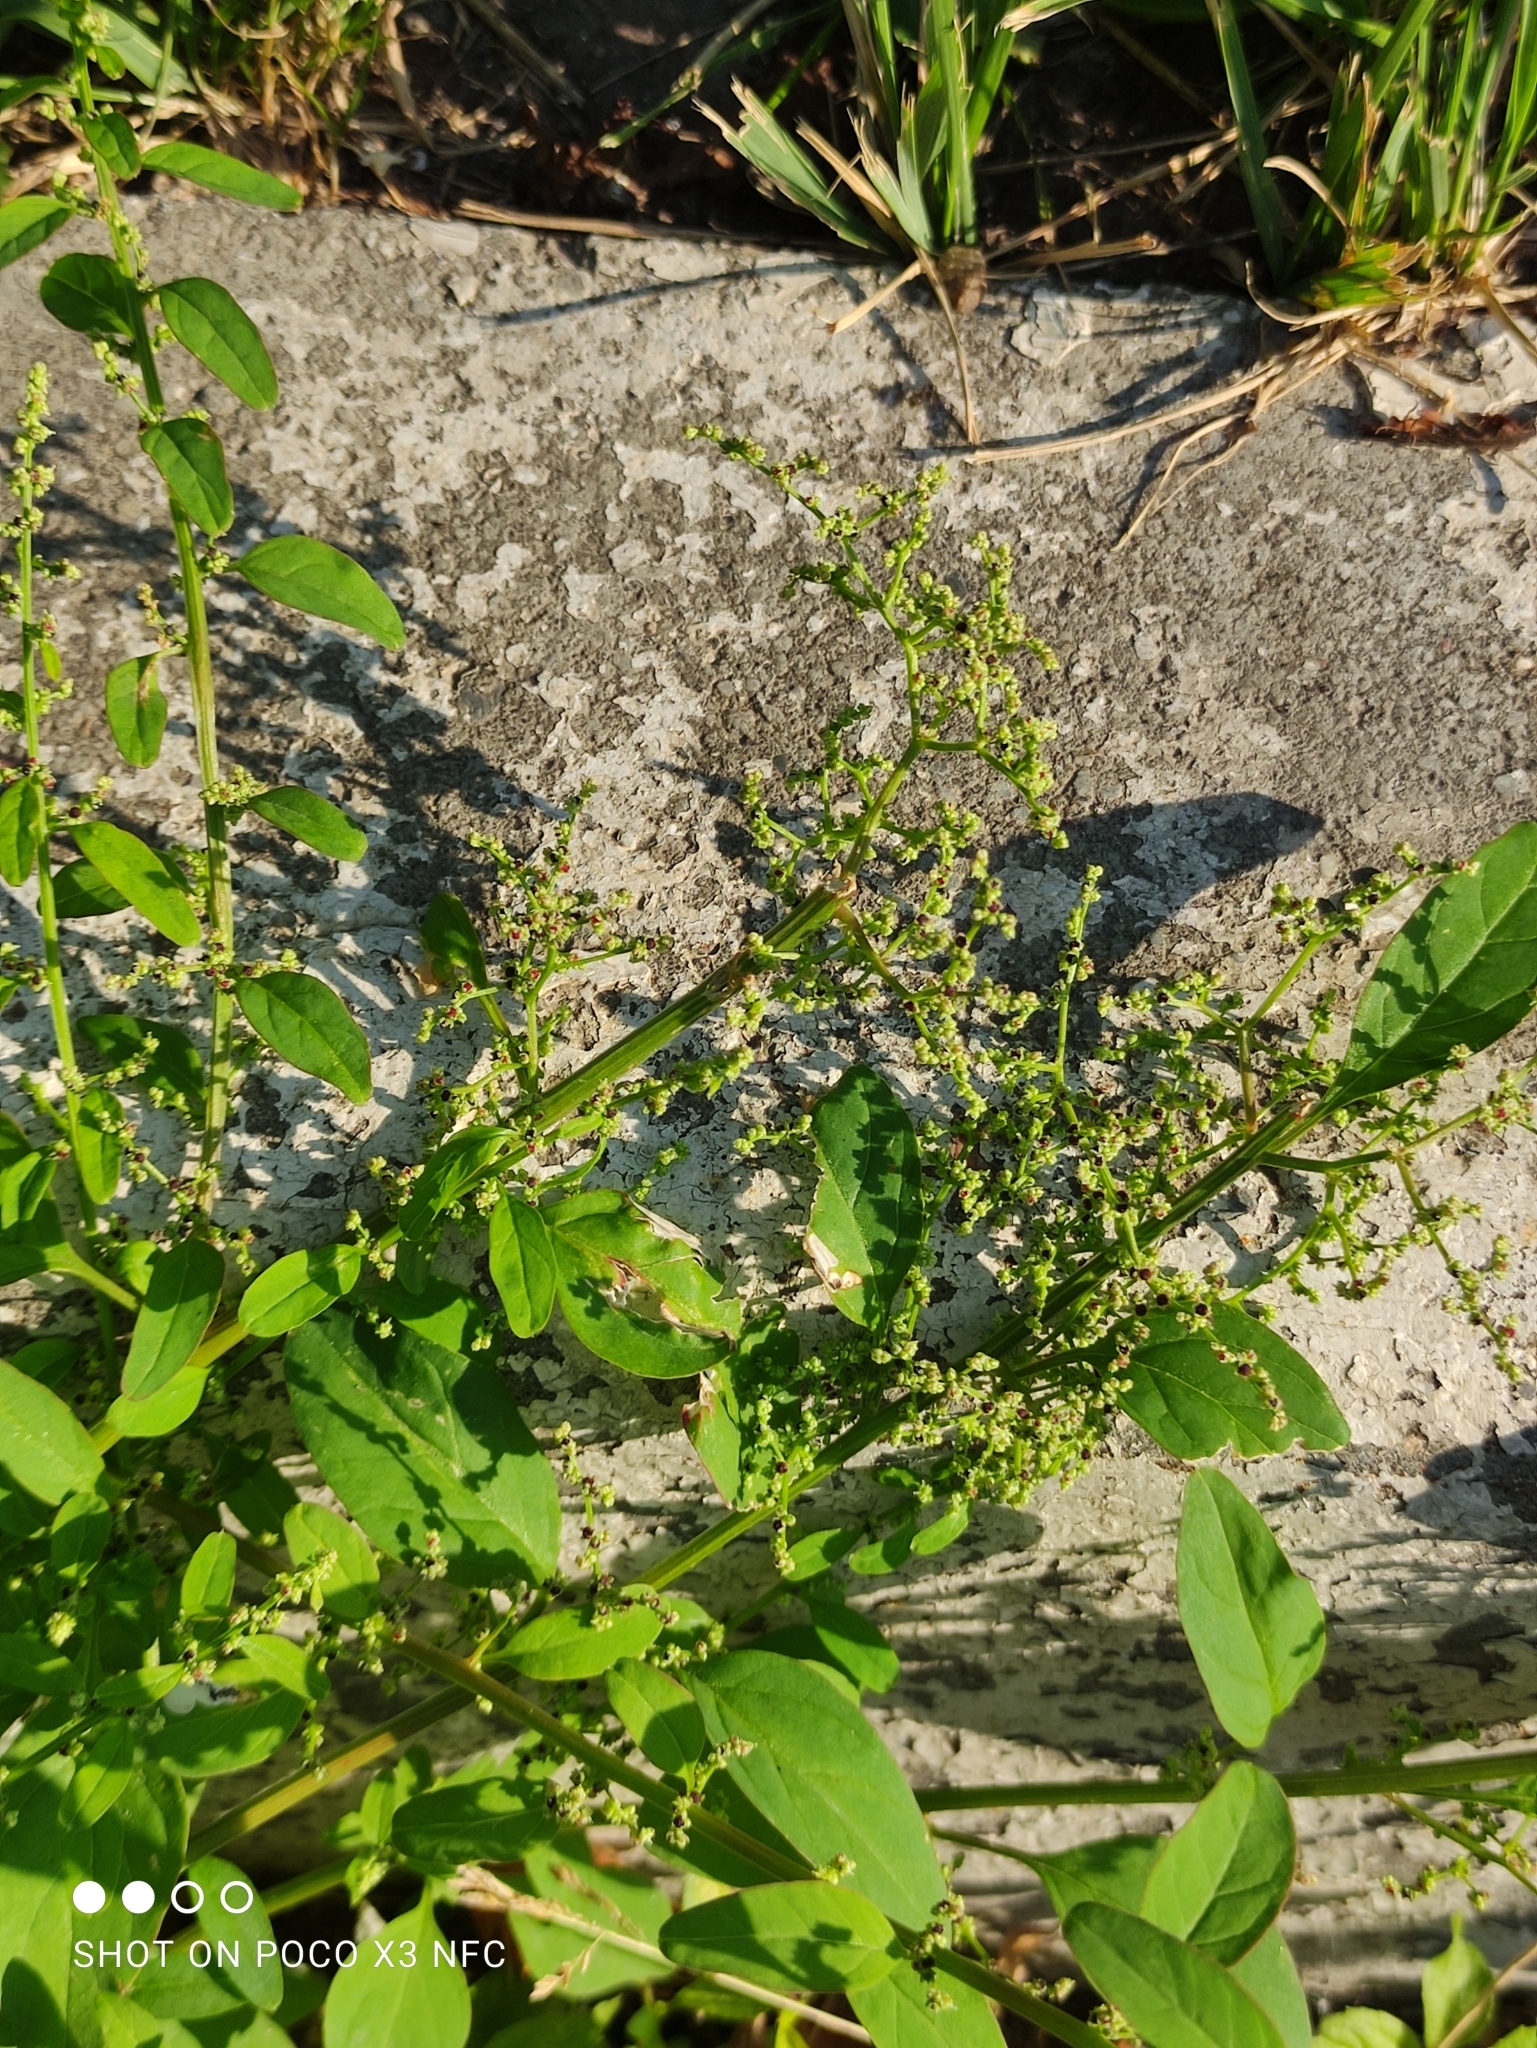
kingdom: Plantae
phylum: Tracheophyta
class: Magnoliopsida
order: Caryophyllales
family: Amaranthaceae
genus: Lipandra
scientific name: Lipandra polysperma
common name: Many-seed goosefoot
